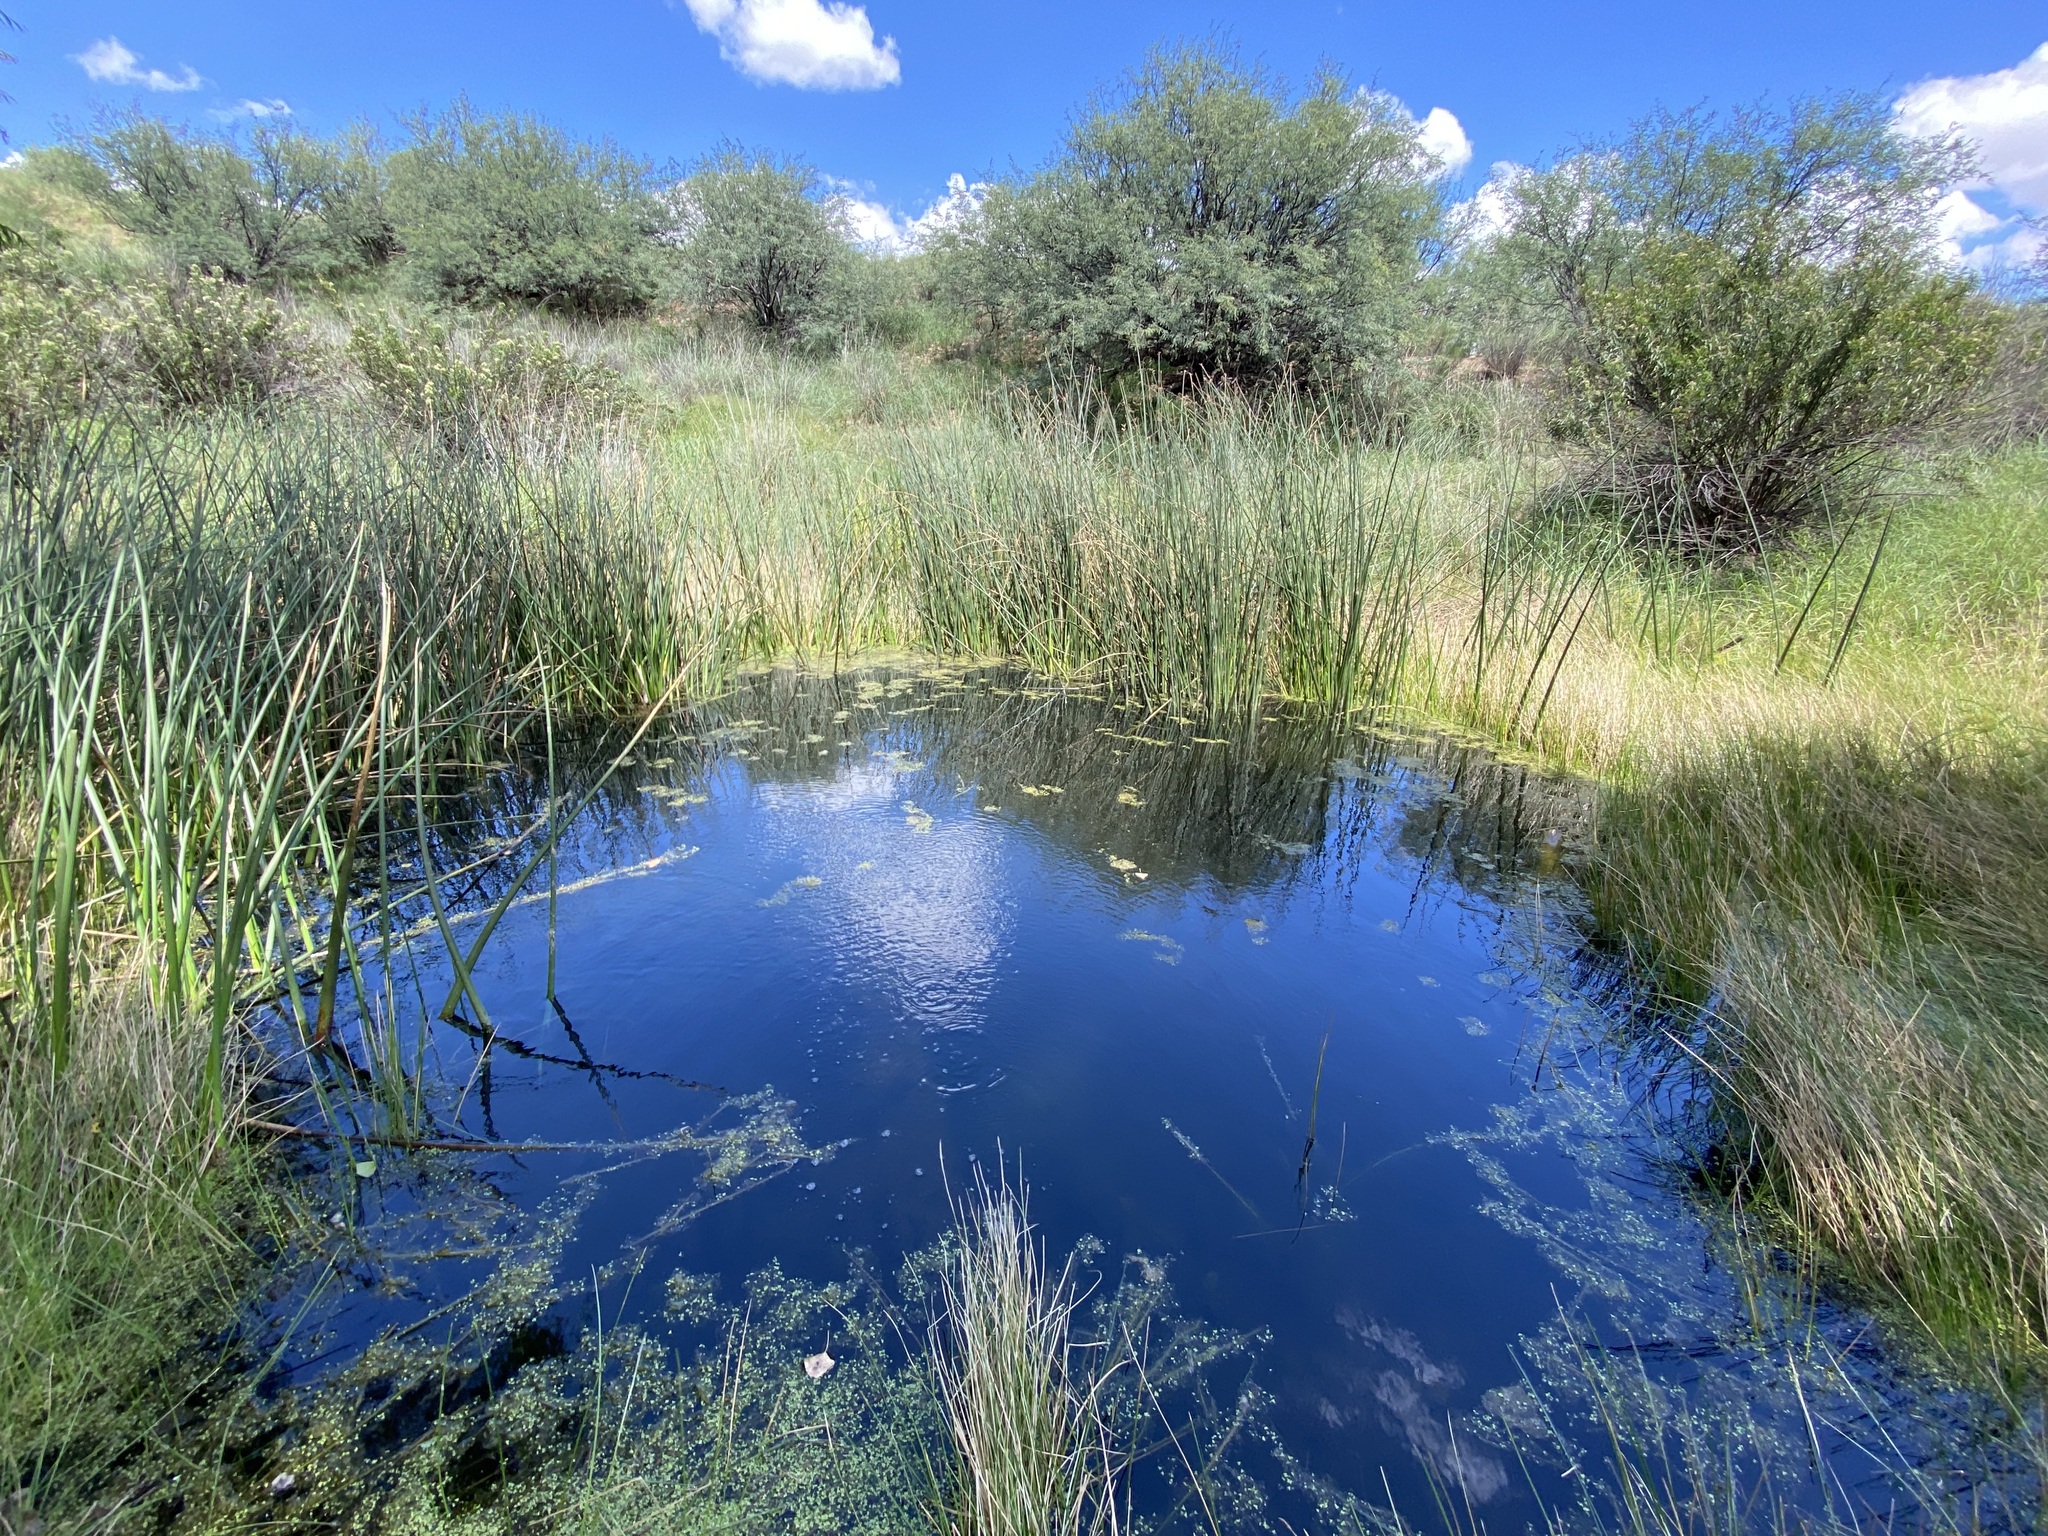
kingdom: Plantae
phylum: Tracheophyta
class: Liliopsida
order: Alismatales
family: Araceae
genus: Lemna
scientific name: Lemna minor
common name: Common duckweed
